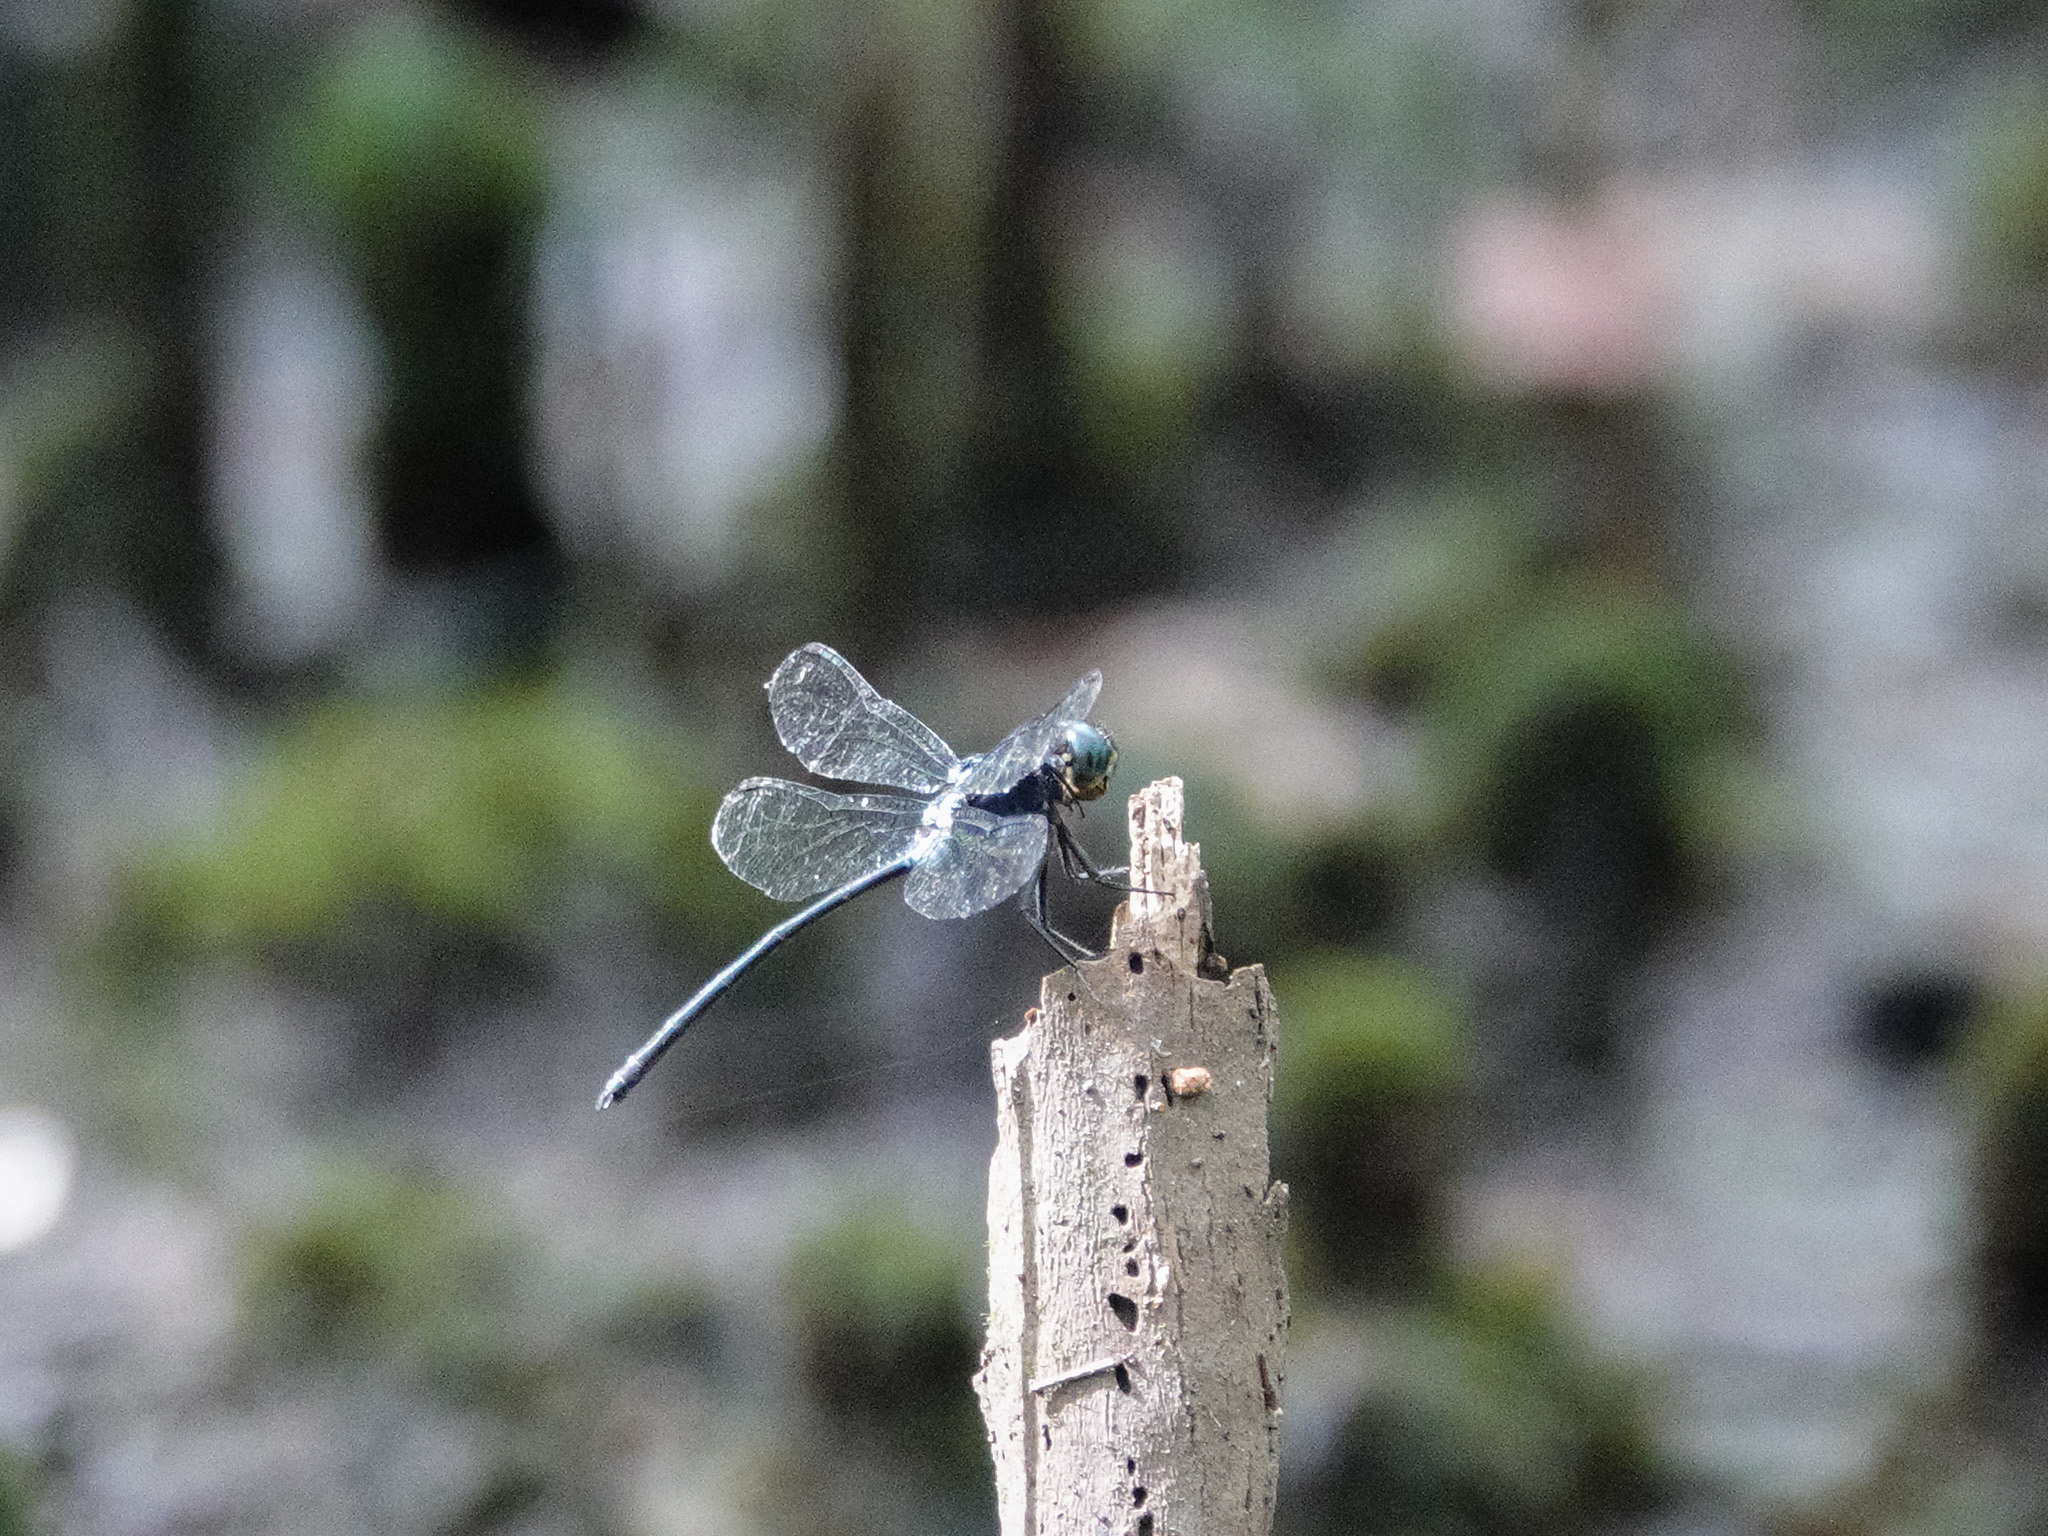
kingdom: Animalia
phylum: Arthropoda
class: Insecta
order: Odonata
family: Libellulidae
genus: Pornothemis
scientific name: Pornothemis starrei
